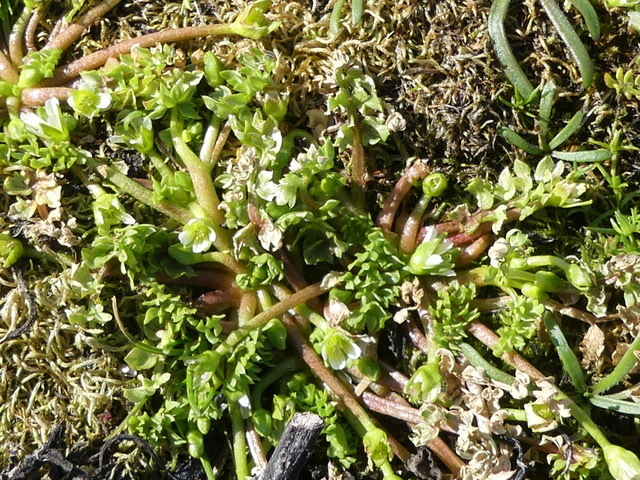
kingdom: Plantae
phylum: Tracheophyta
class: Magnoliopsida
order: Brassicales
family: Limnanthaceae
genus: Limnanthes
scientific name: Limnanthes macounii
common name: Macoun's meadowfoam
